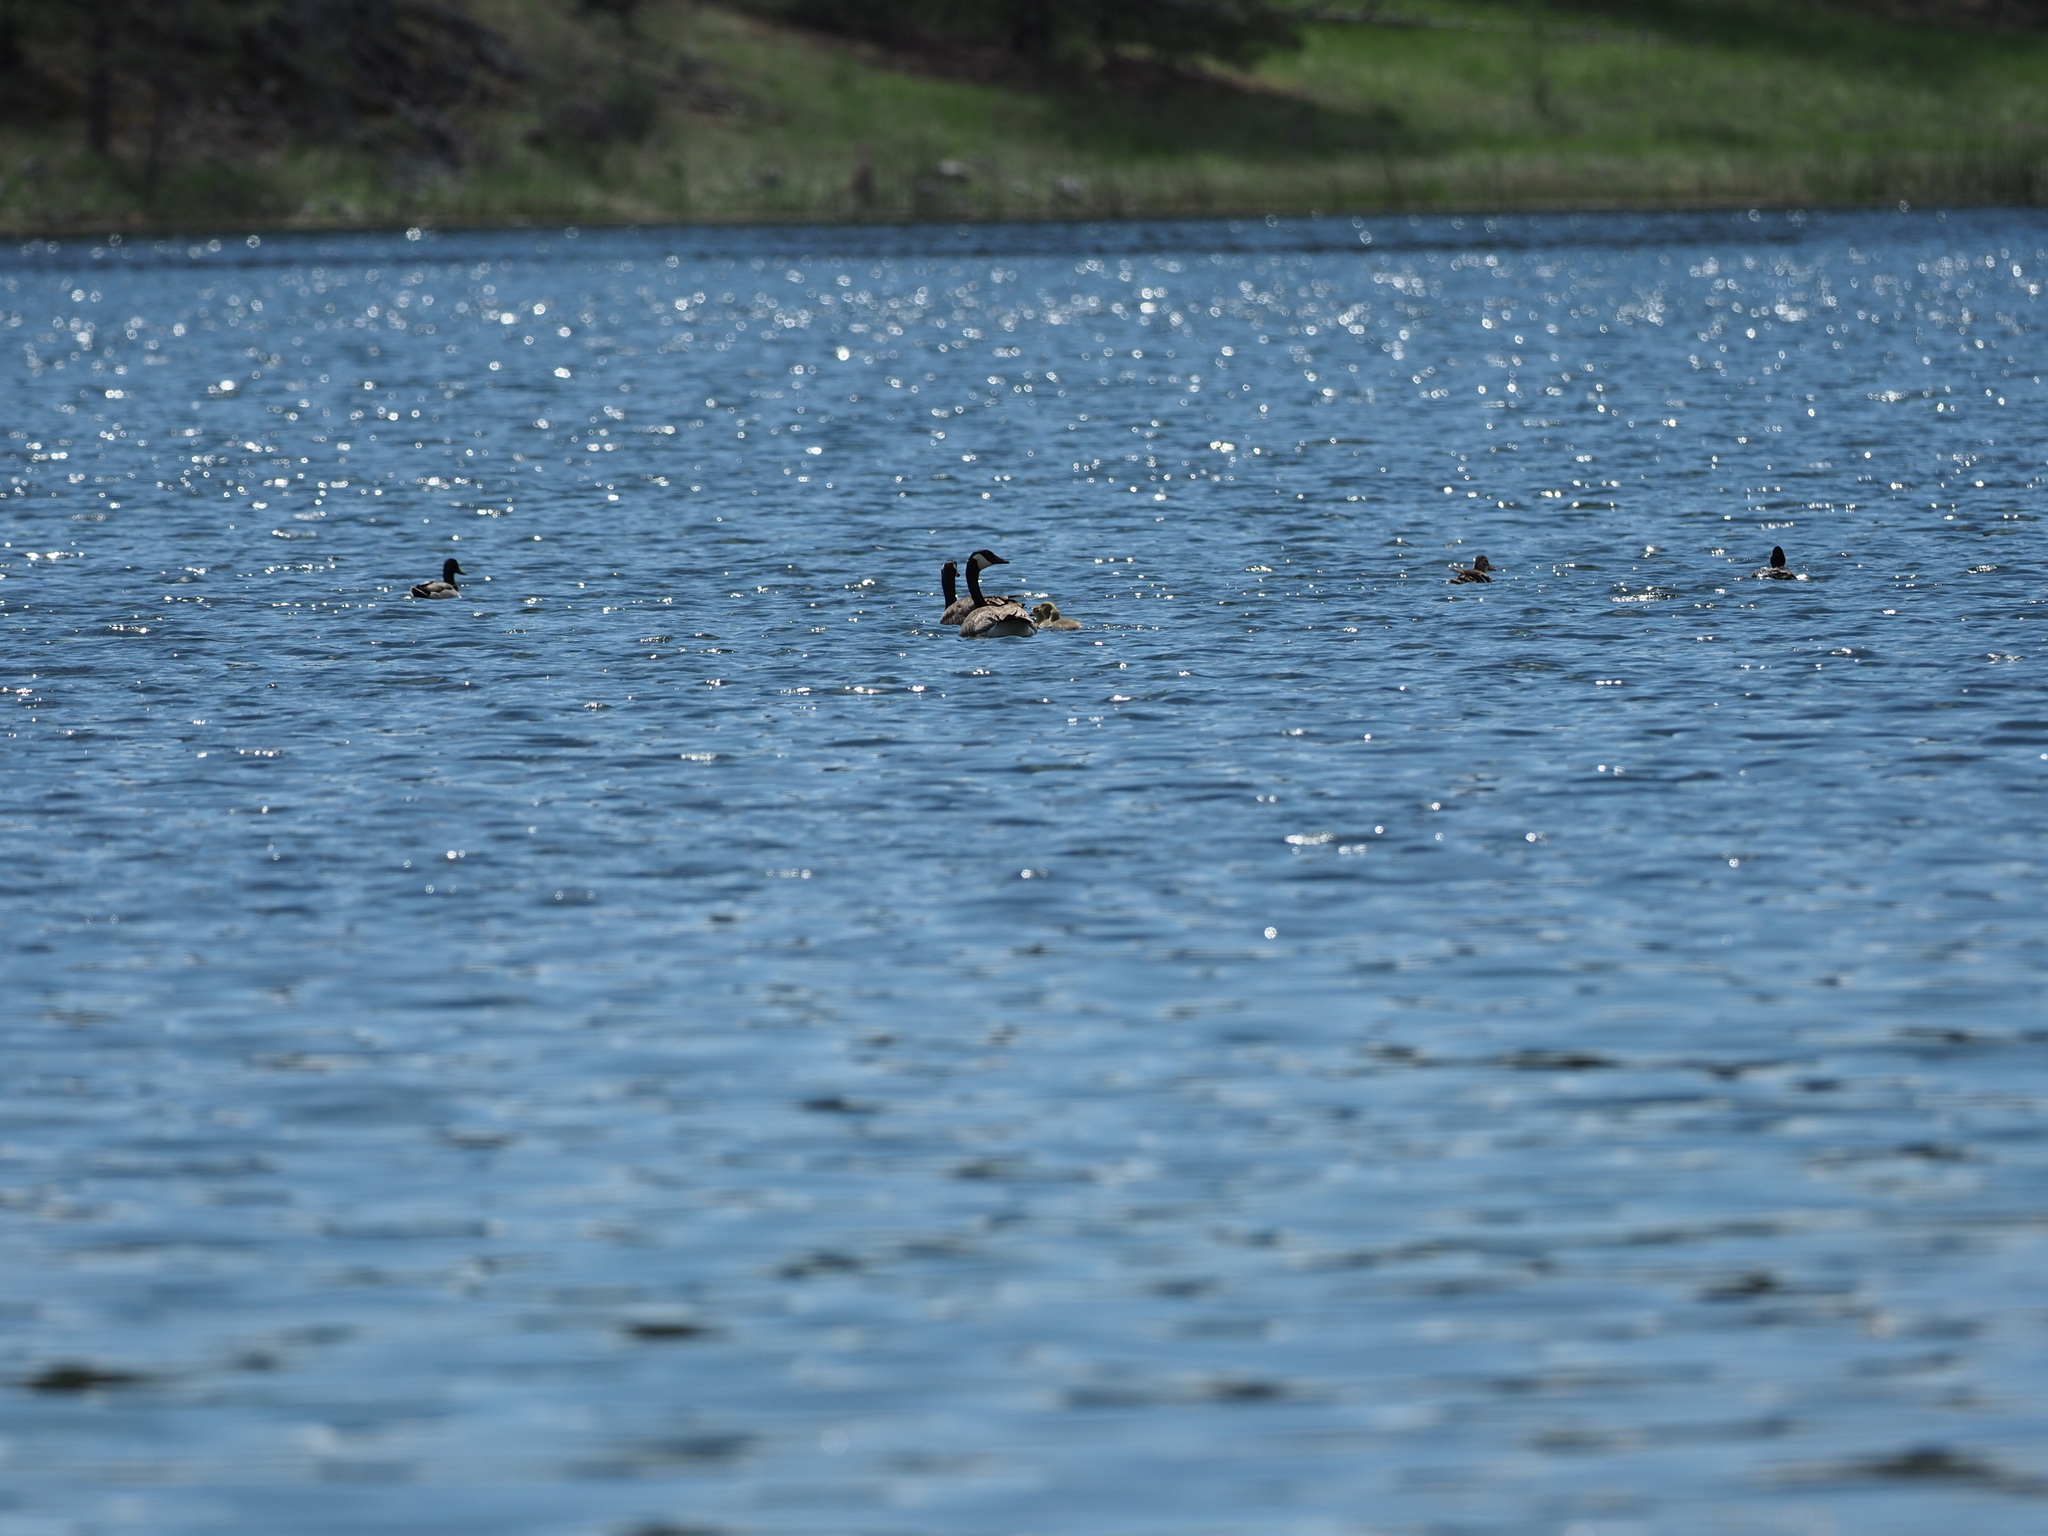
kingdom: Animalia
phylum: Chordata
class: Aves
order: Anseriformes
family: Anatidae
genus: Branta
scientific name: Branta canadensis
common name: Canada goose
